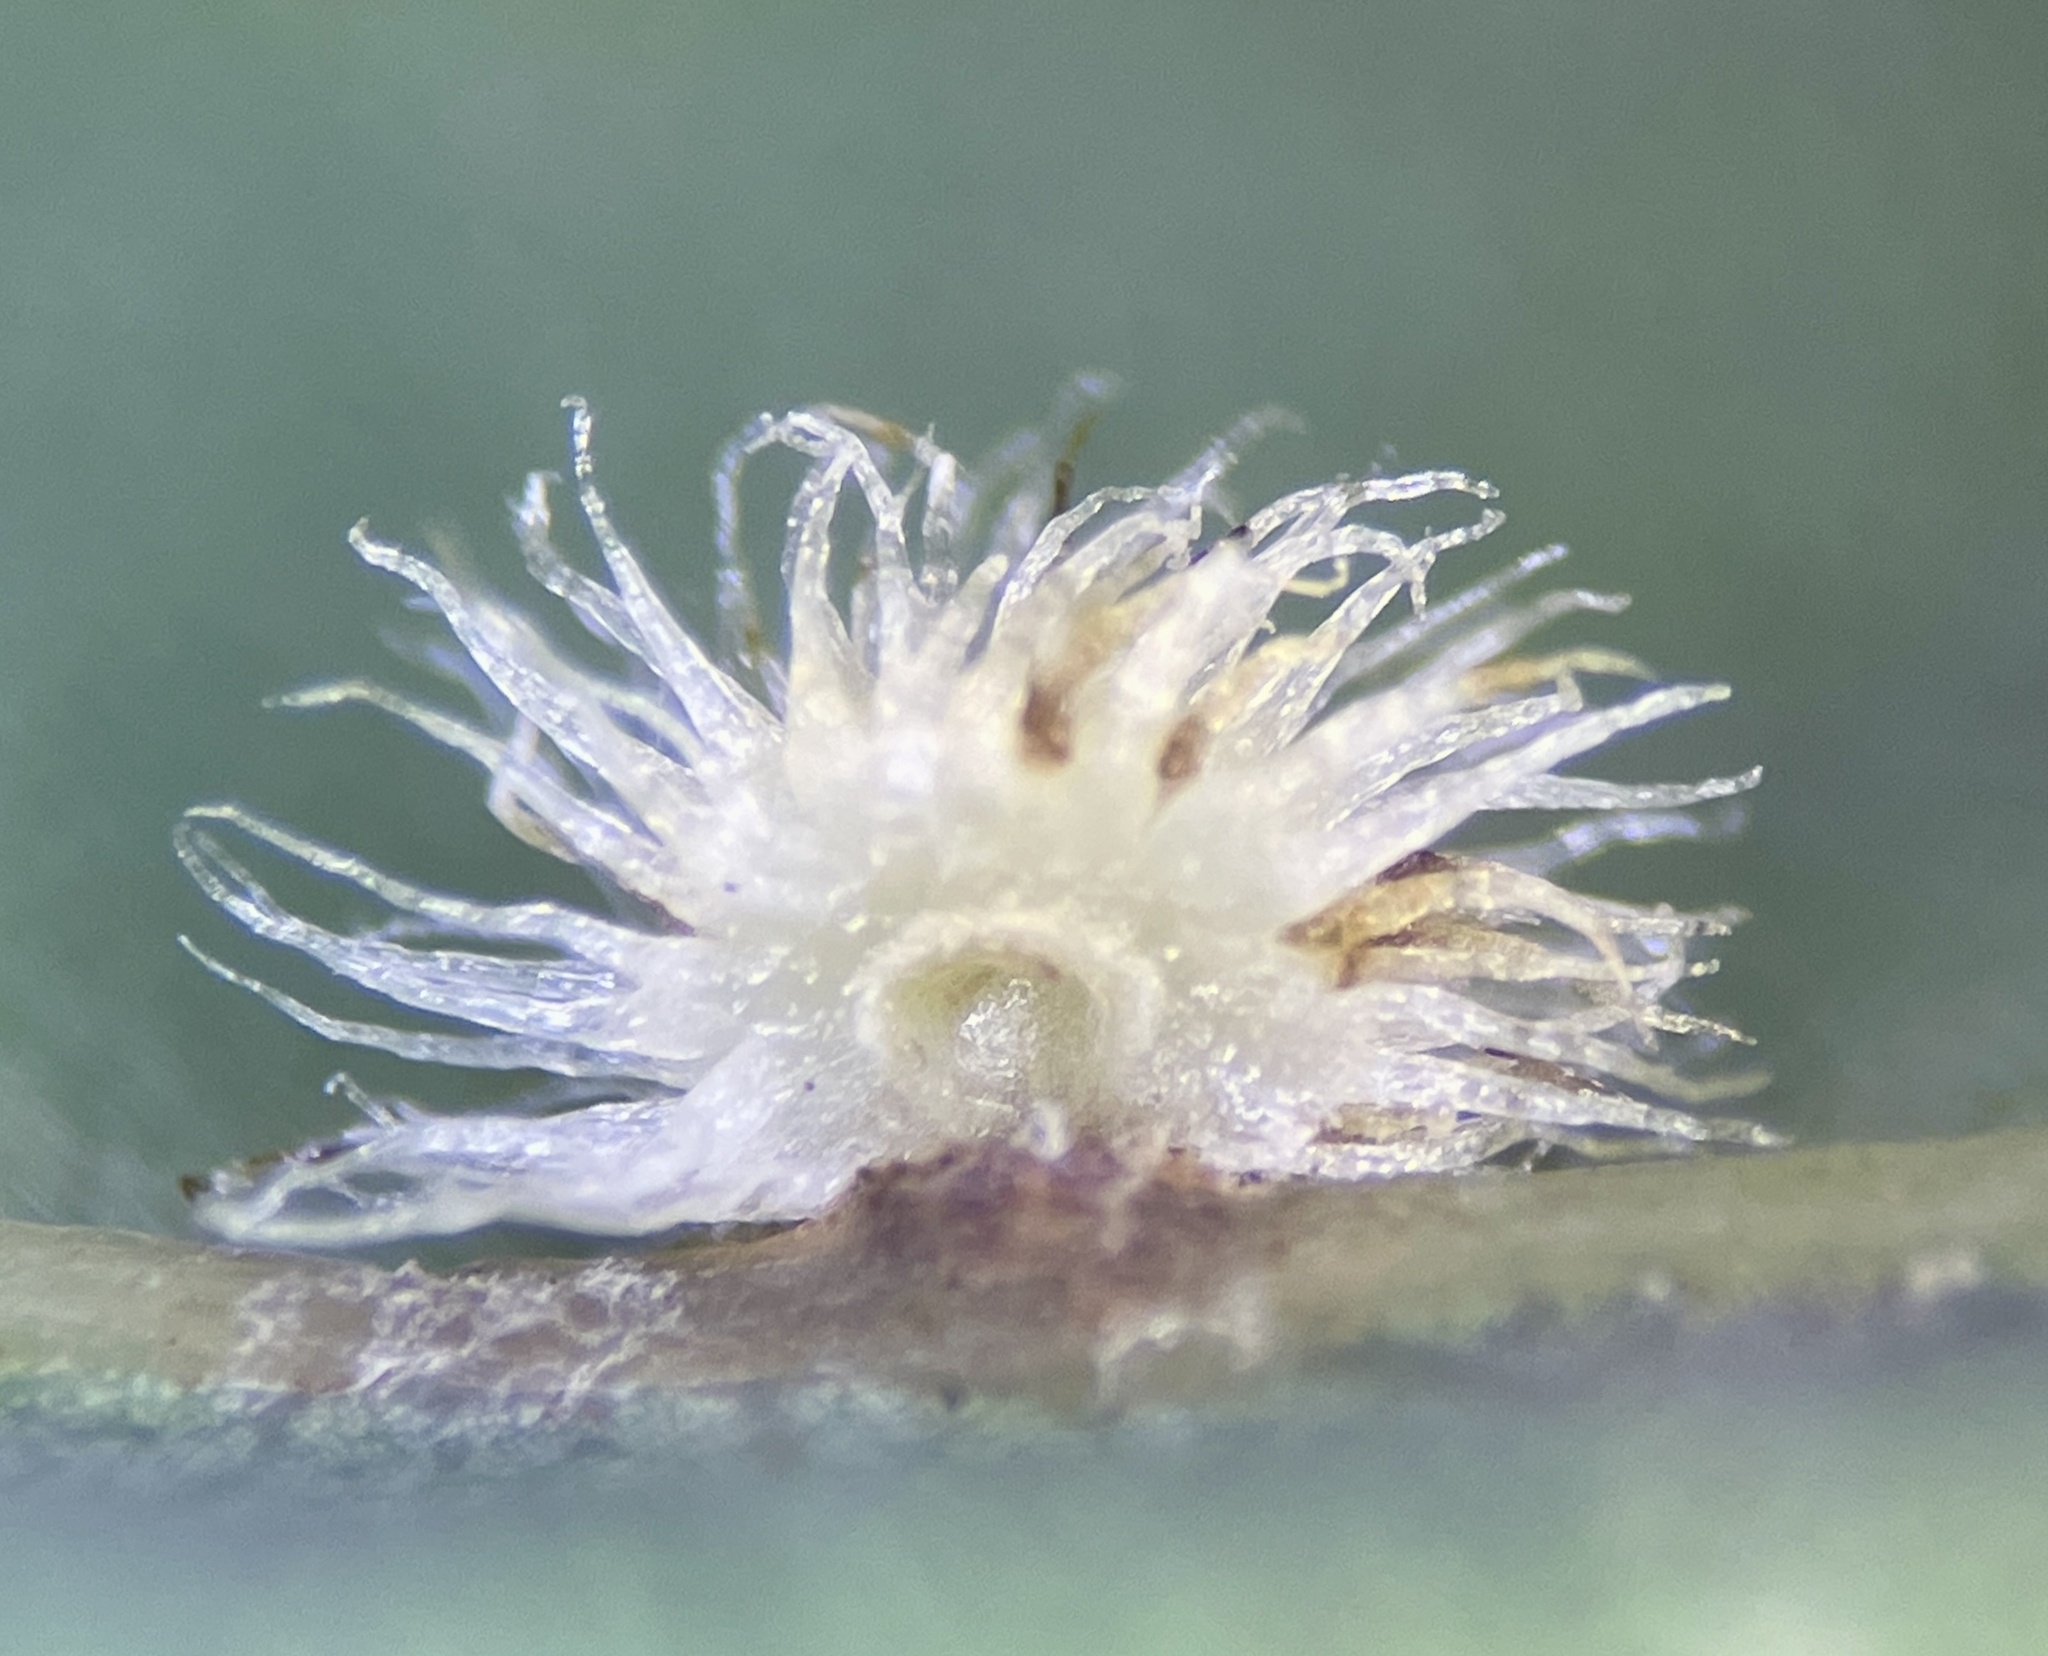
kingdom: Animalia
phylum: Arthropoda
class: Insecta
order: Hymenoptera
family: Cynipidae
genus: Acraspis
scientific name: Acraspis erinacei
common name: Hedgehog gall wasp
